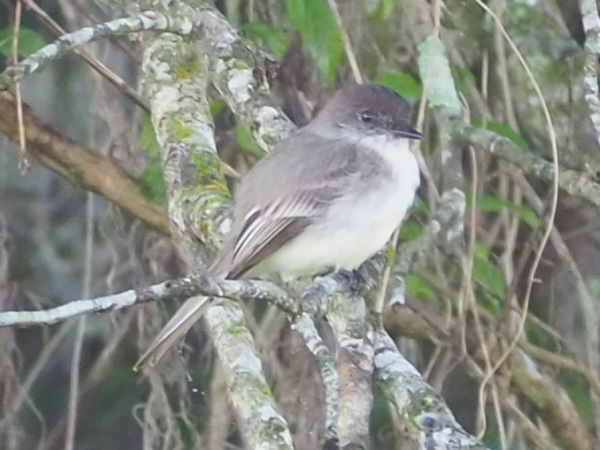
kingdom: Animalia
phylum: Chordata
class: Aves
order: Passeriformes
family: Tyrannidae
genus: Sayornis
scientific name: Sayornis phoebe
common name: Eastern phoebe
